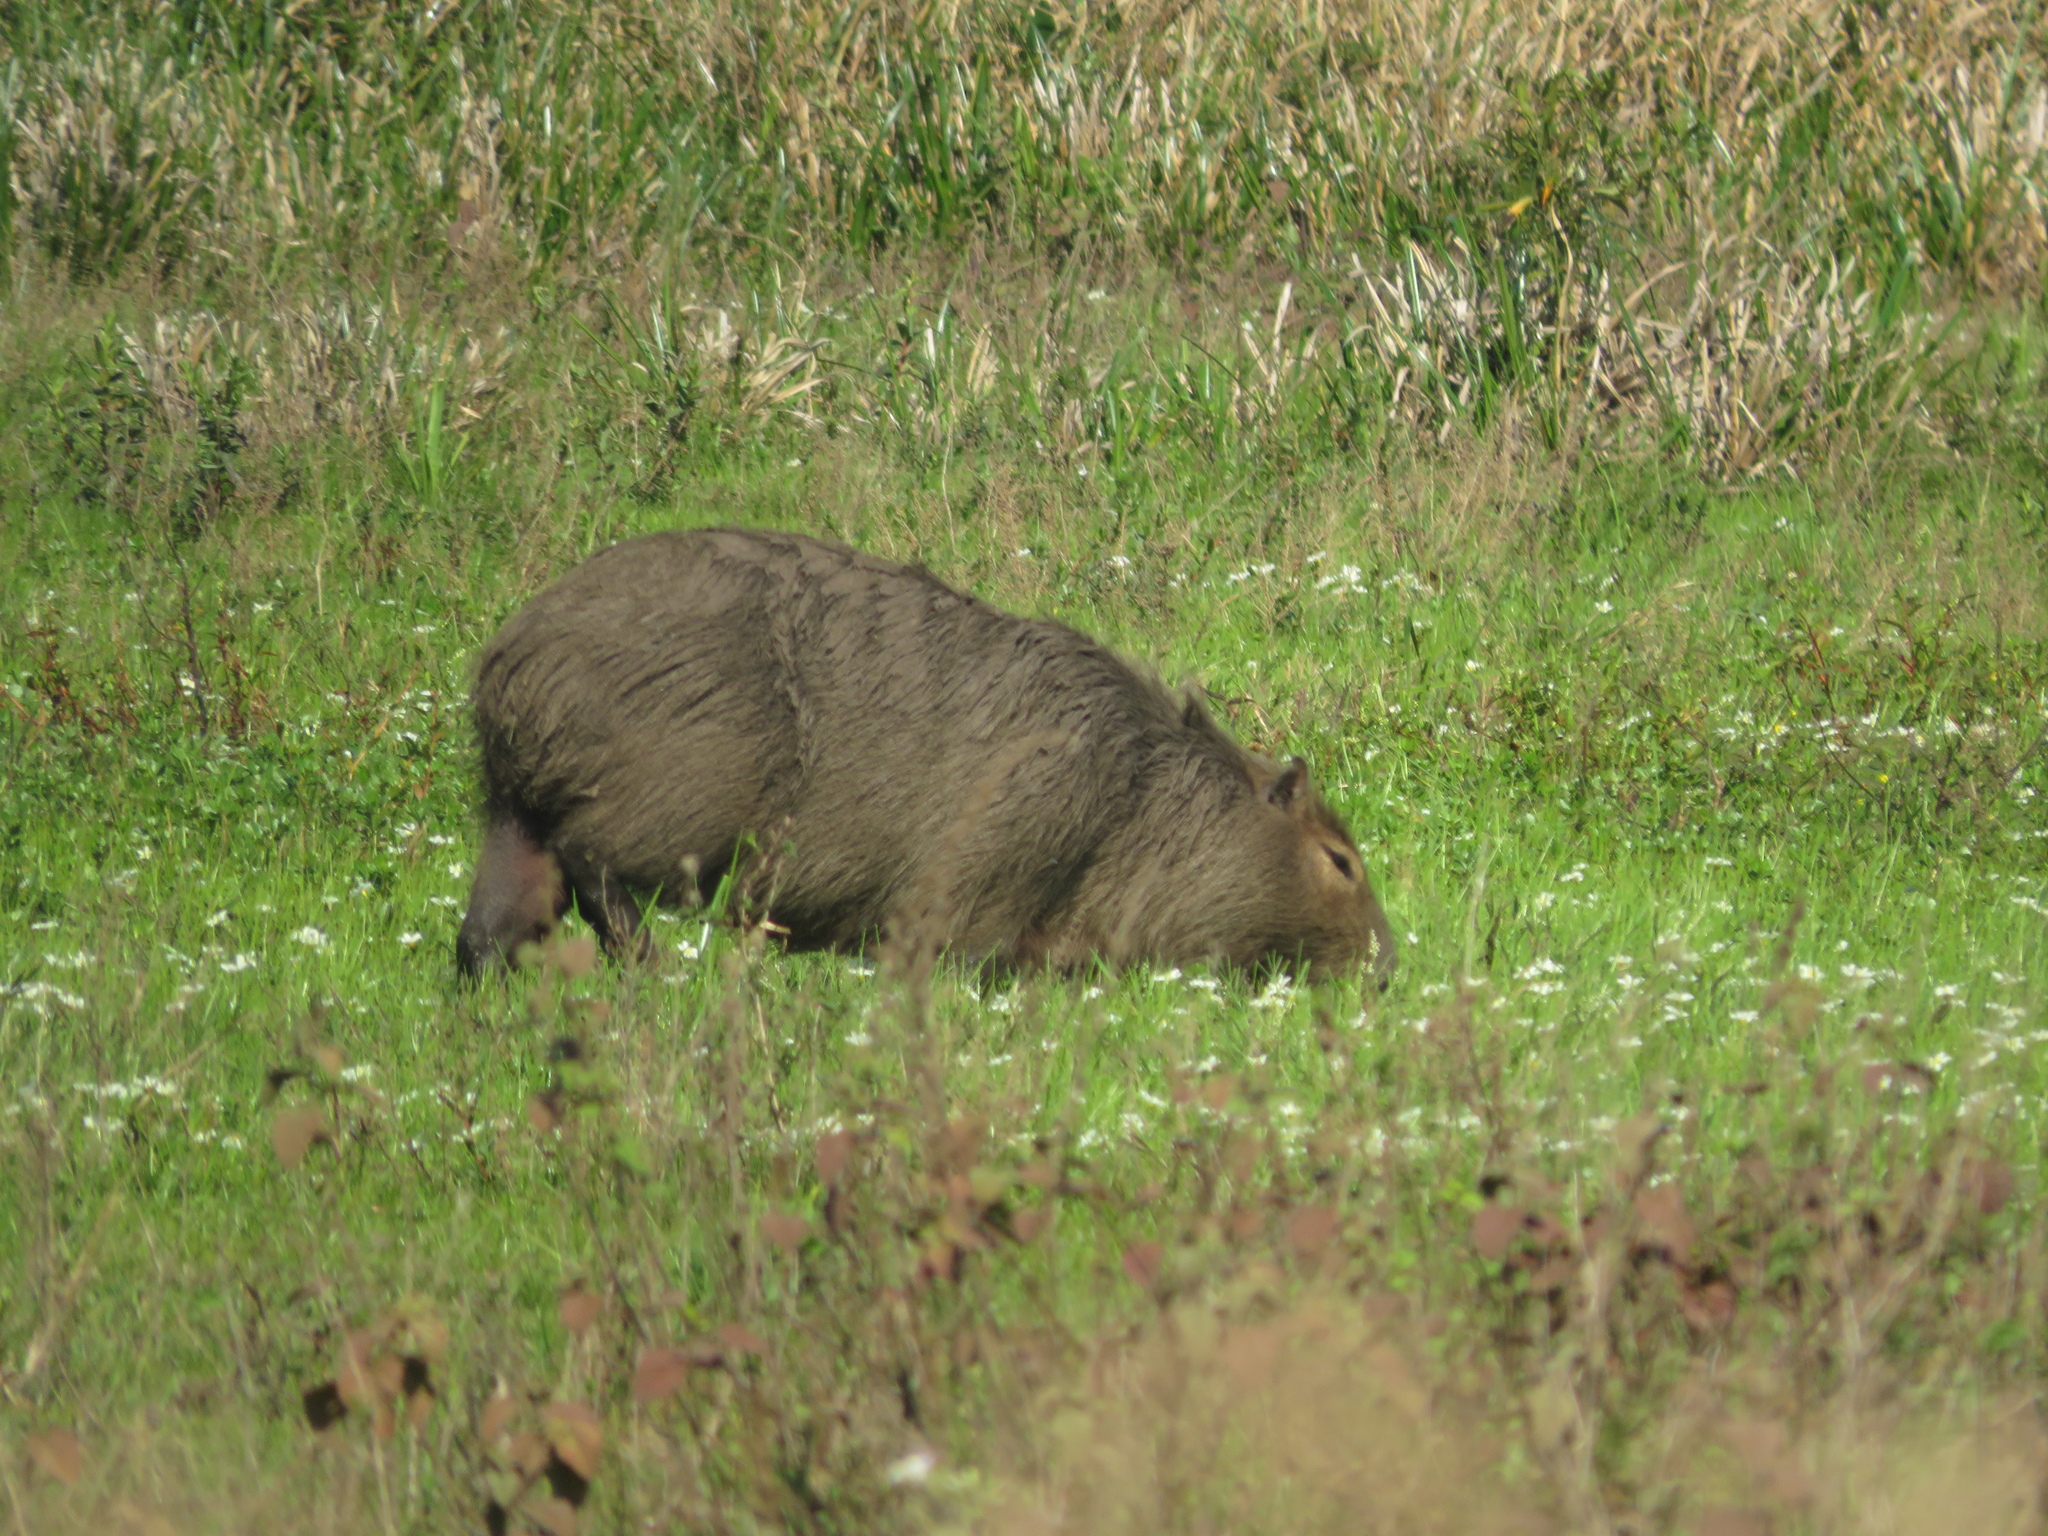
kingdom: Animalia
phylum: Chordata
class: Mammalia
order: Rodentia
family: Caviidae
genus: Hydrochoerus
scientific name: Hydrochoerus hydrochaeris
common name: Capybara
